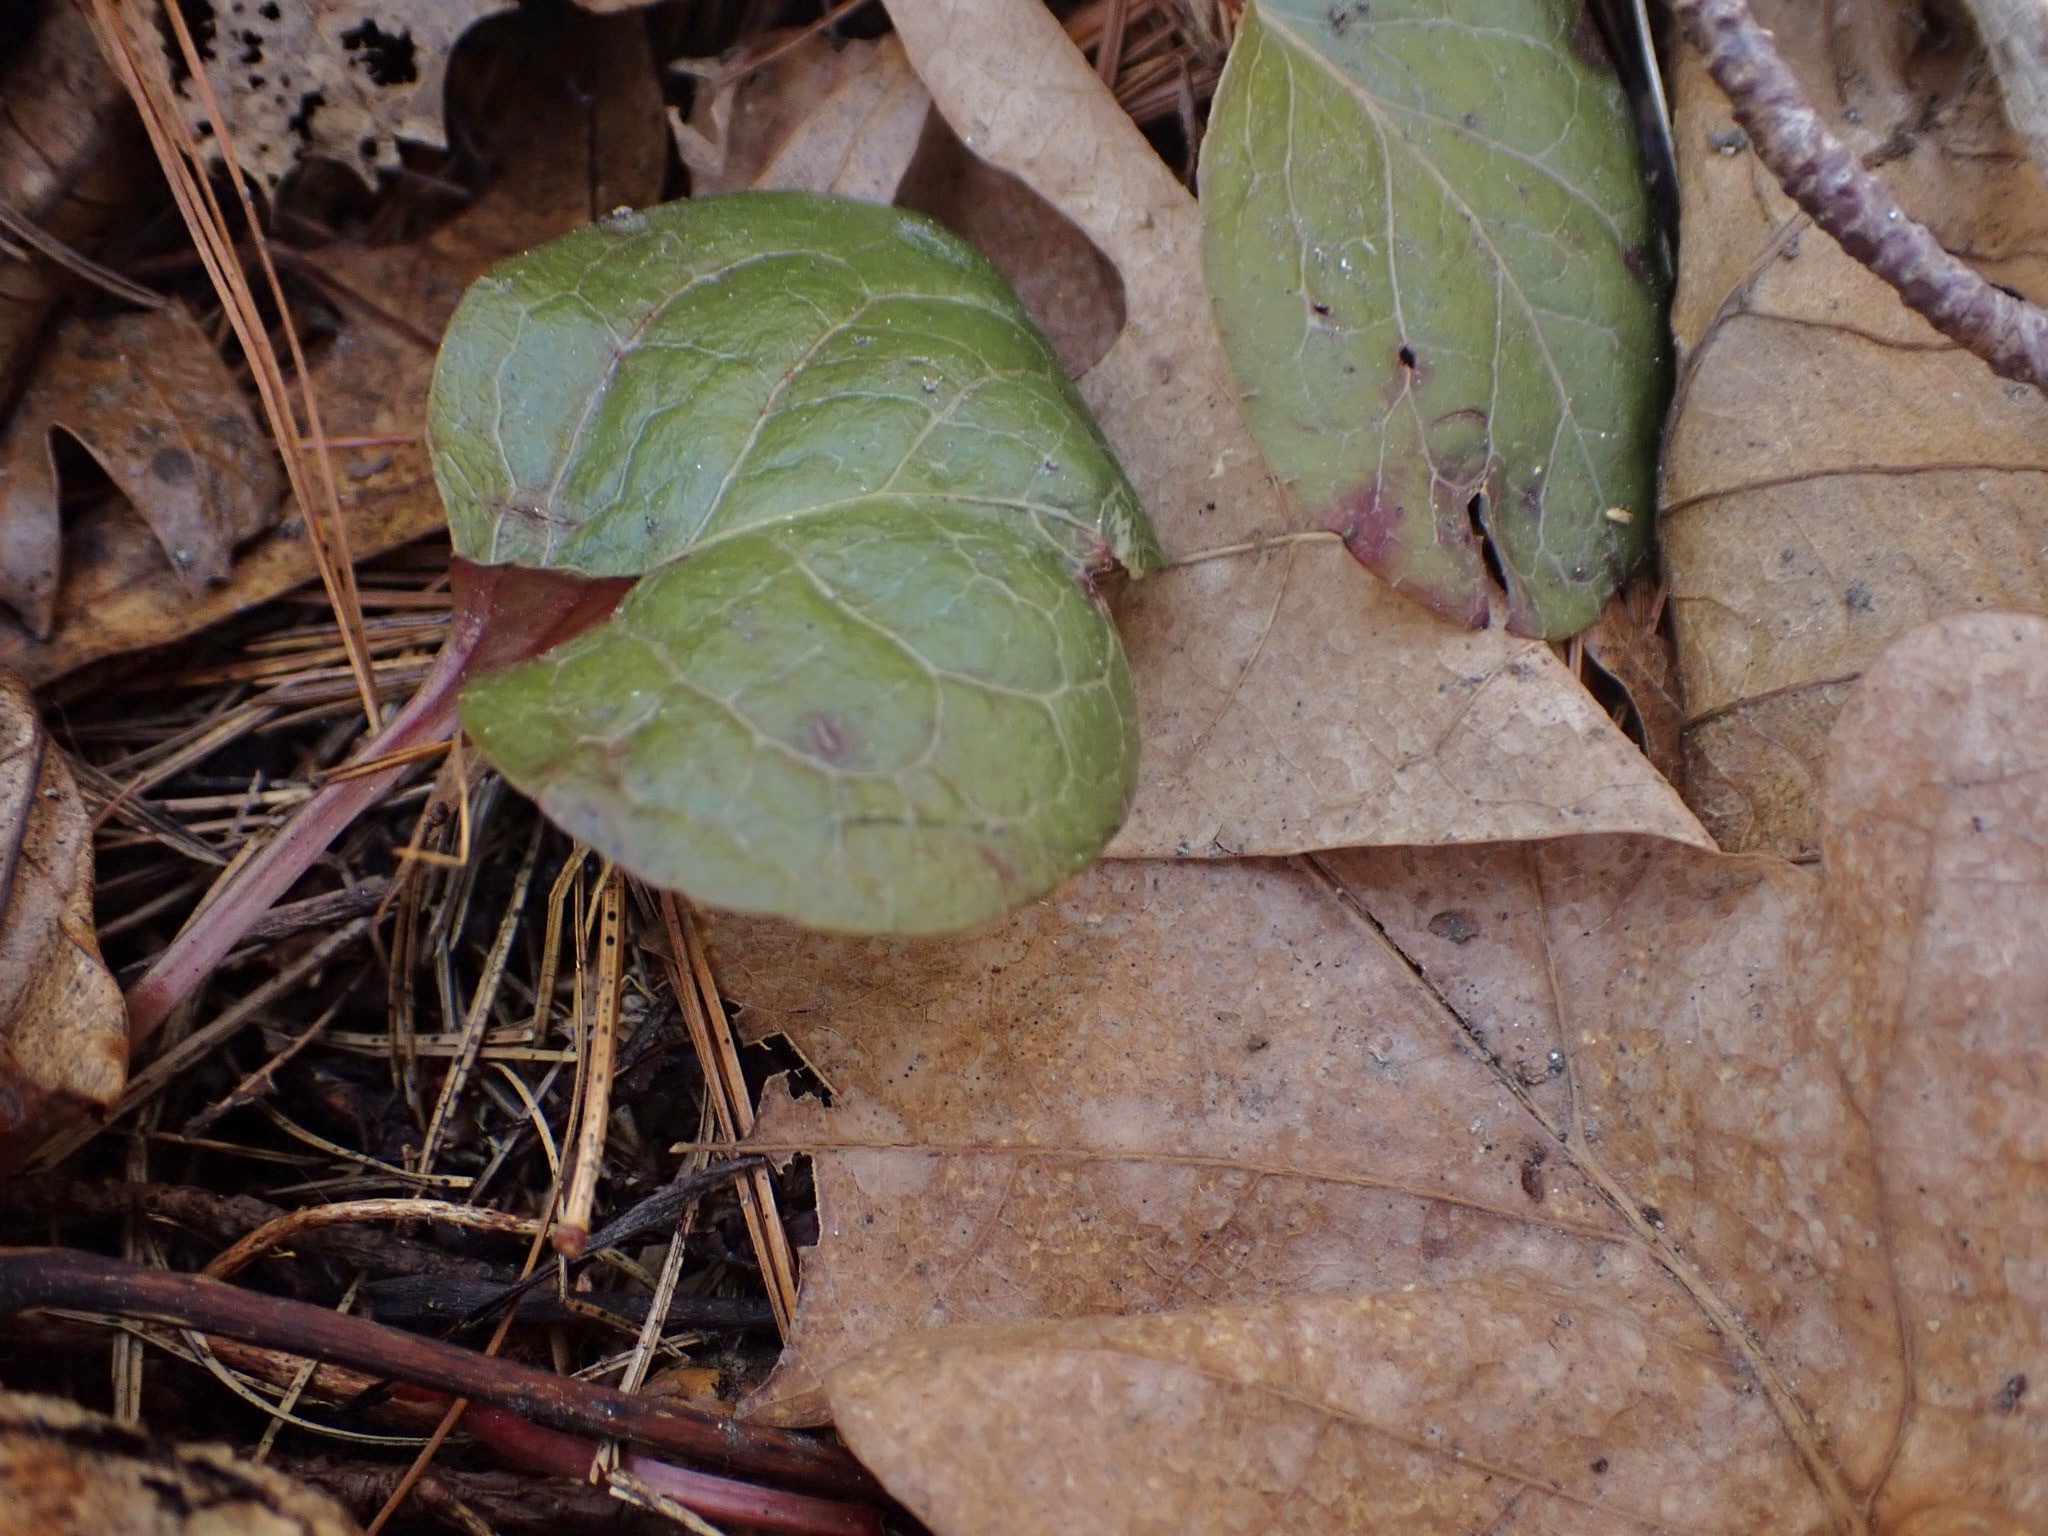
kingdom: Plantae
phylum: Tracheophyta
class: Magnoliopsida
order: Ericales
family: Ericaceae
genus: Pyrola
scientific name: Pyrola americana
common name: American wintergreen
